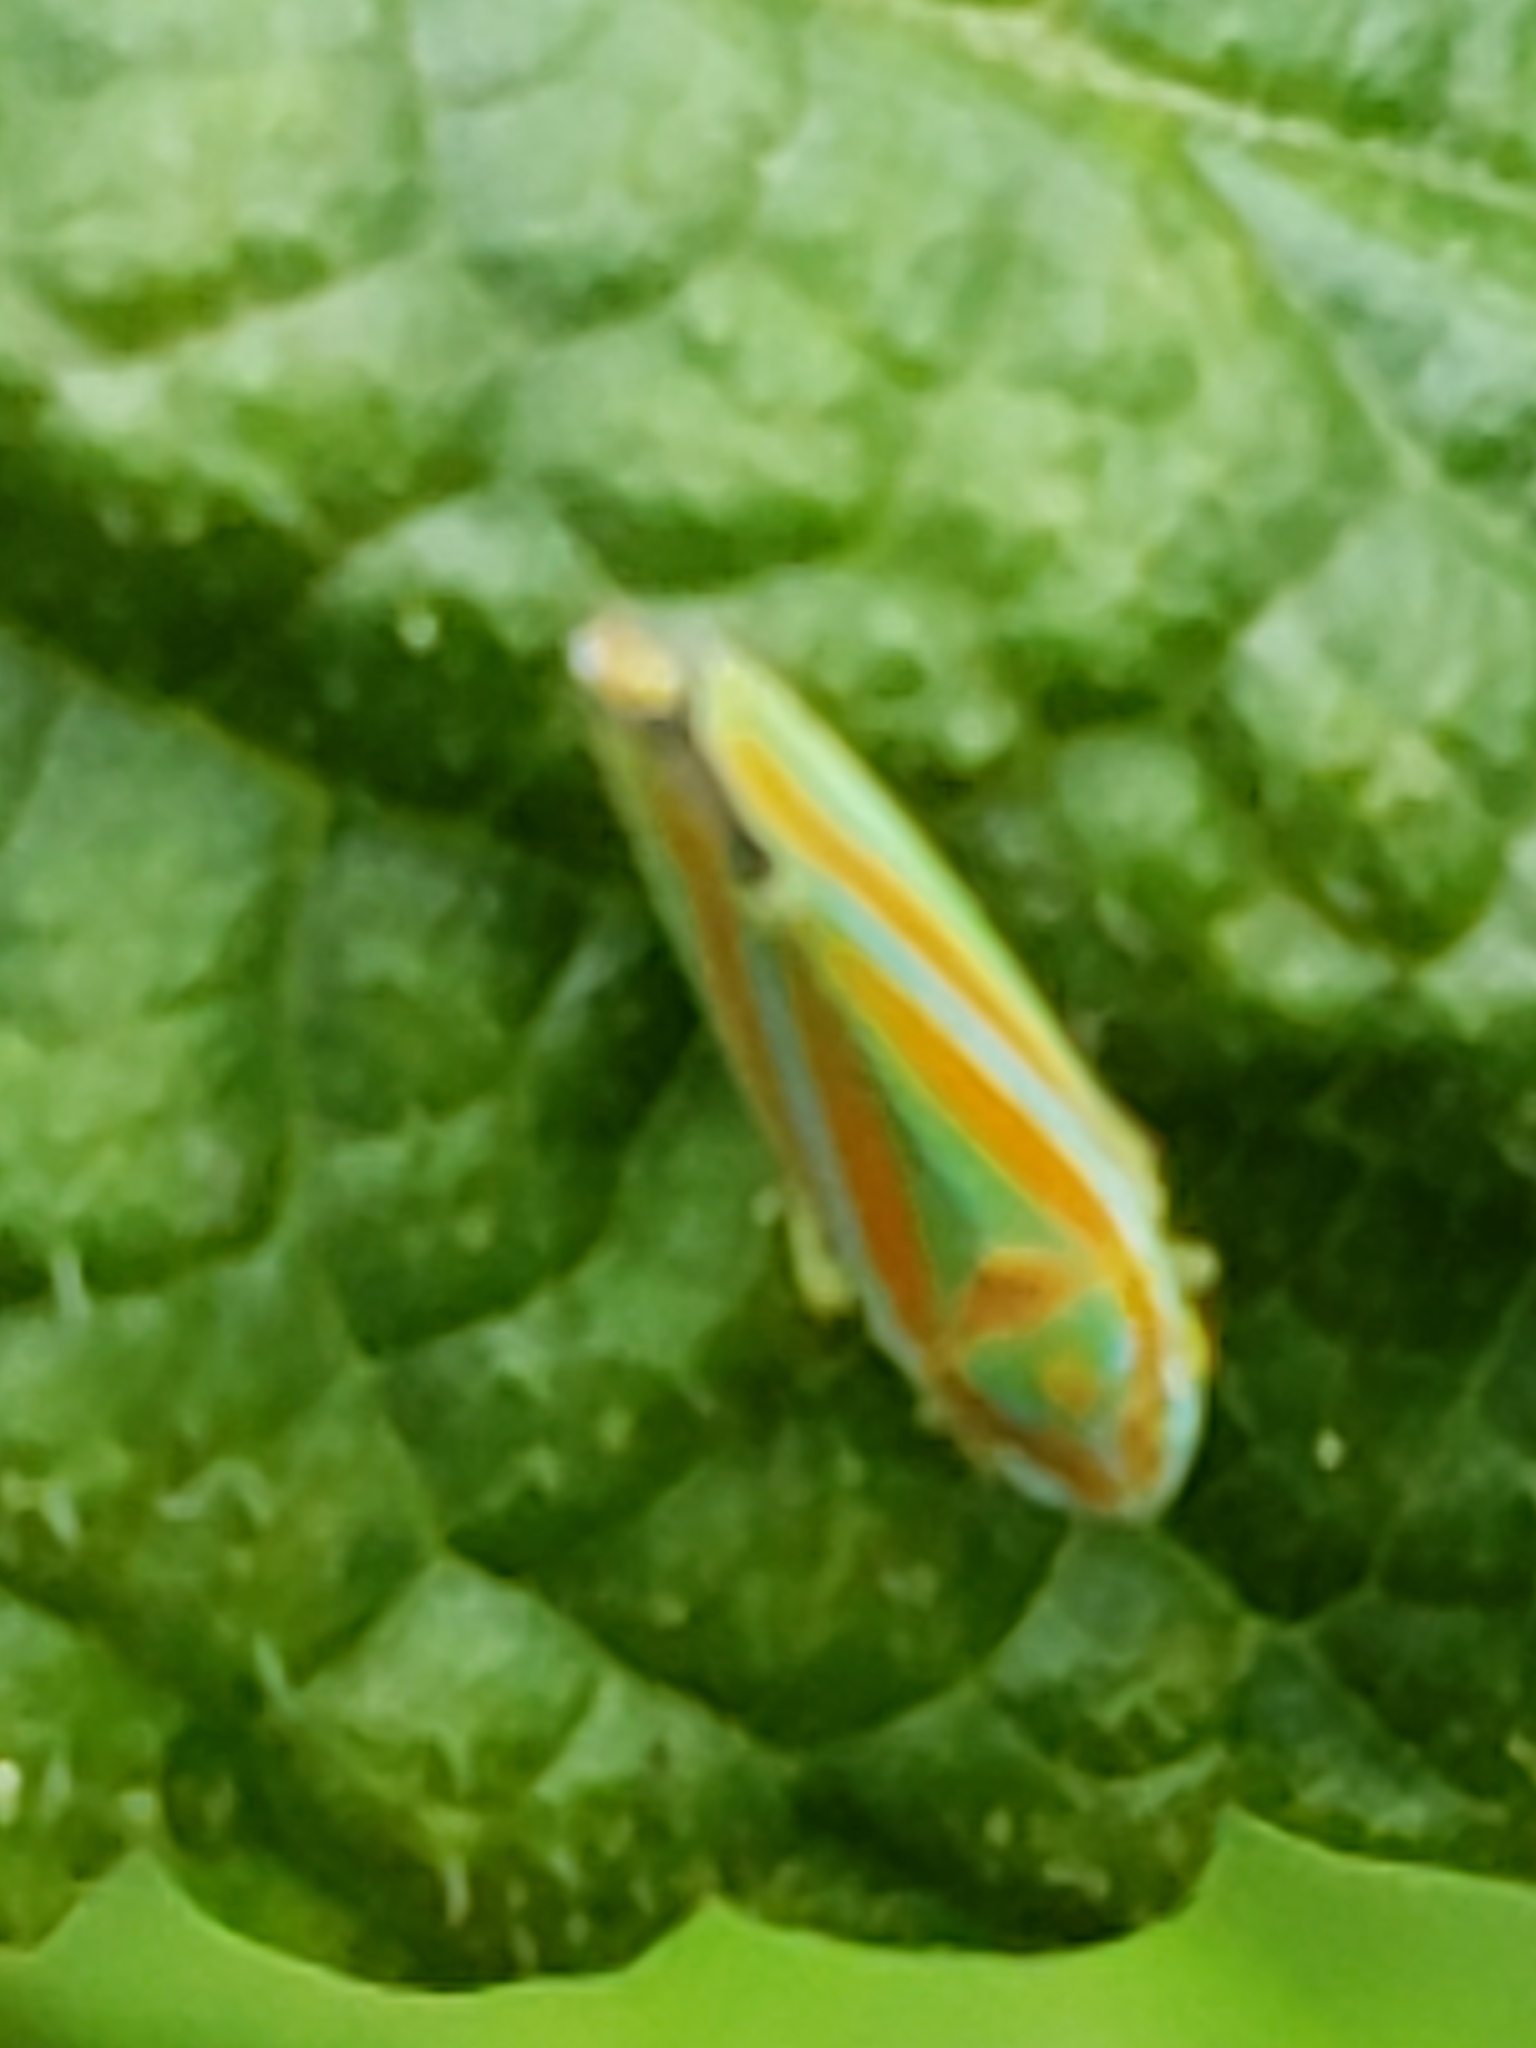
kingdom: Animalia
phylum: Arthropoda
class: Insecta
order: Hemiptera
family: Cicadellidae
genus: Graphocephala
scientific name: Graphocephala versuta
